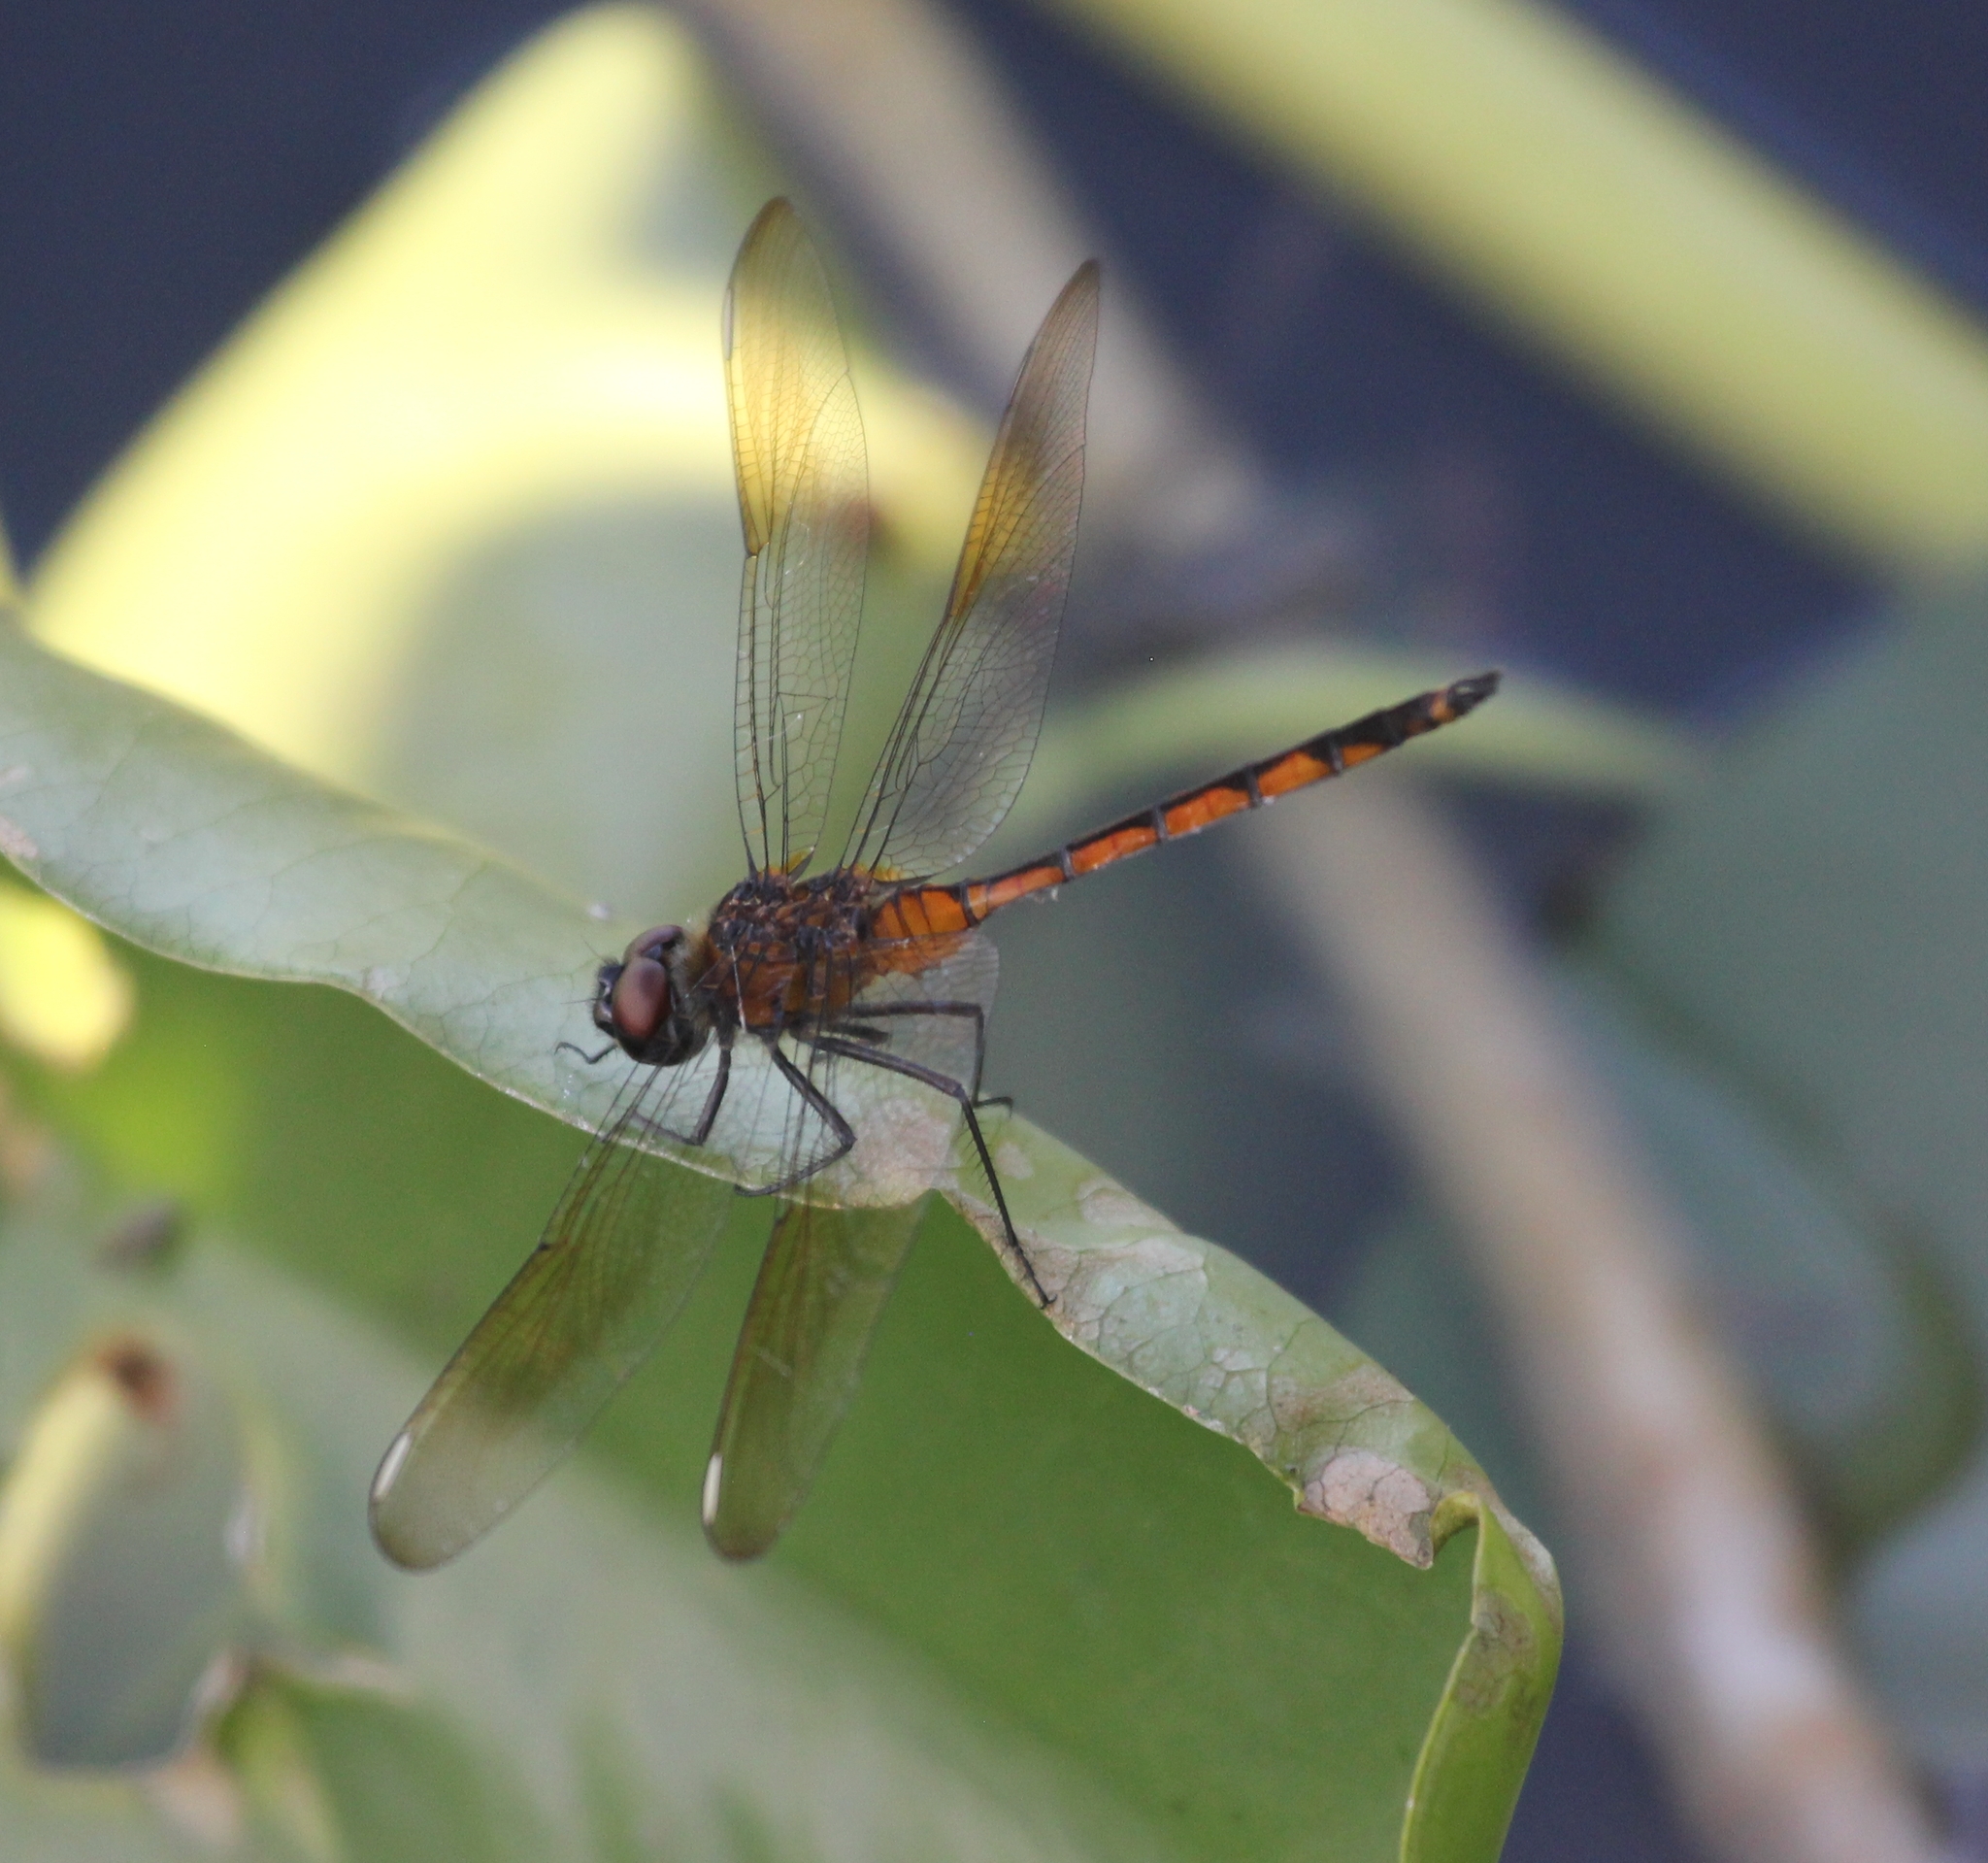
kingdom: Animalia
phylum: Arthropoda
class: Insecta
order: Odonata
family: Libellulidae
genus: Brachymesia
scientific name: Brachymesia gravida
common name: Four-spotted pennant
